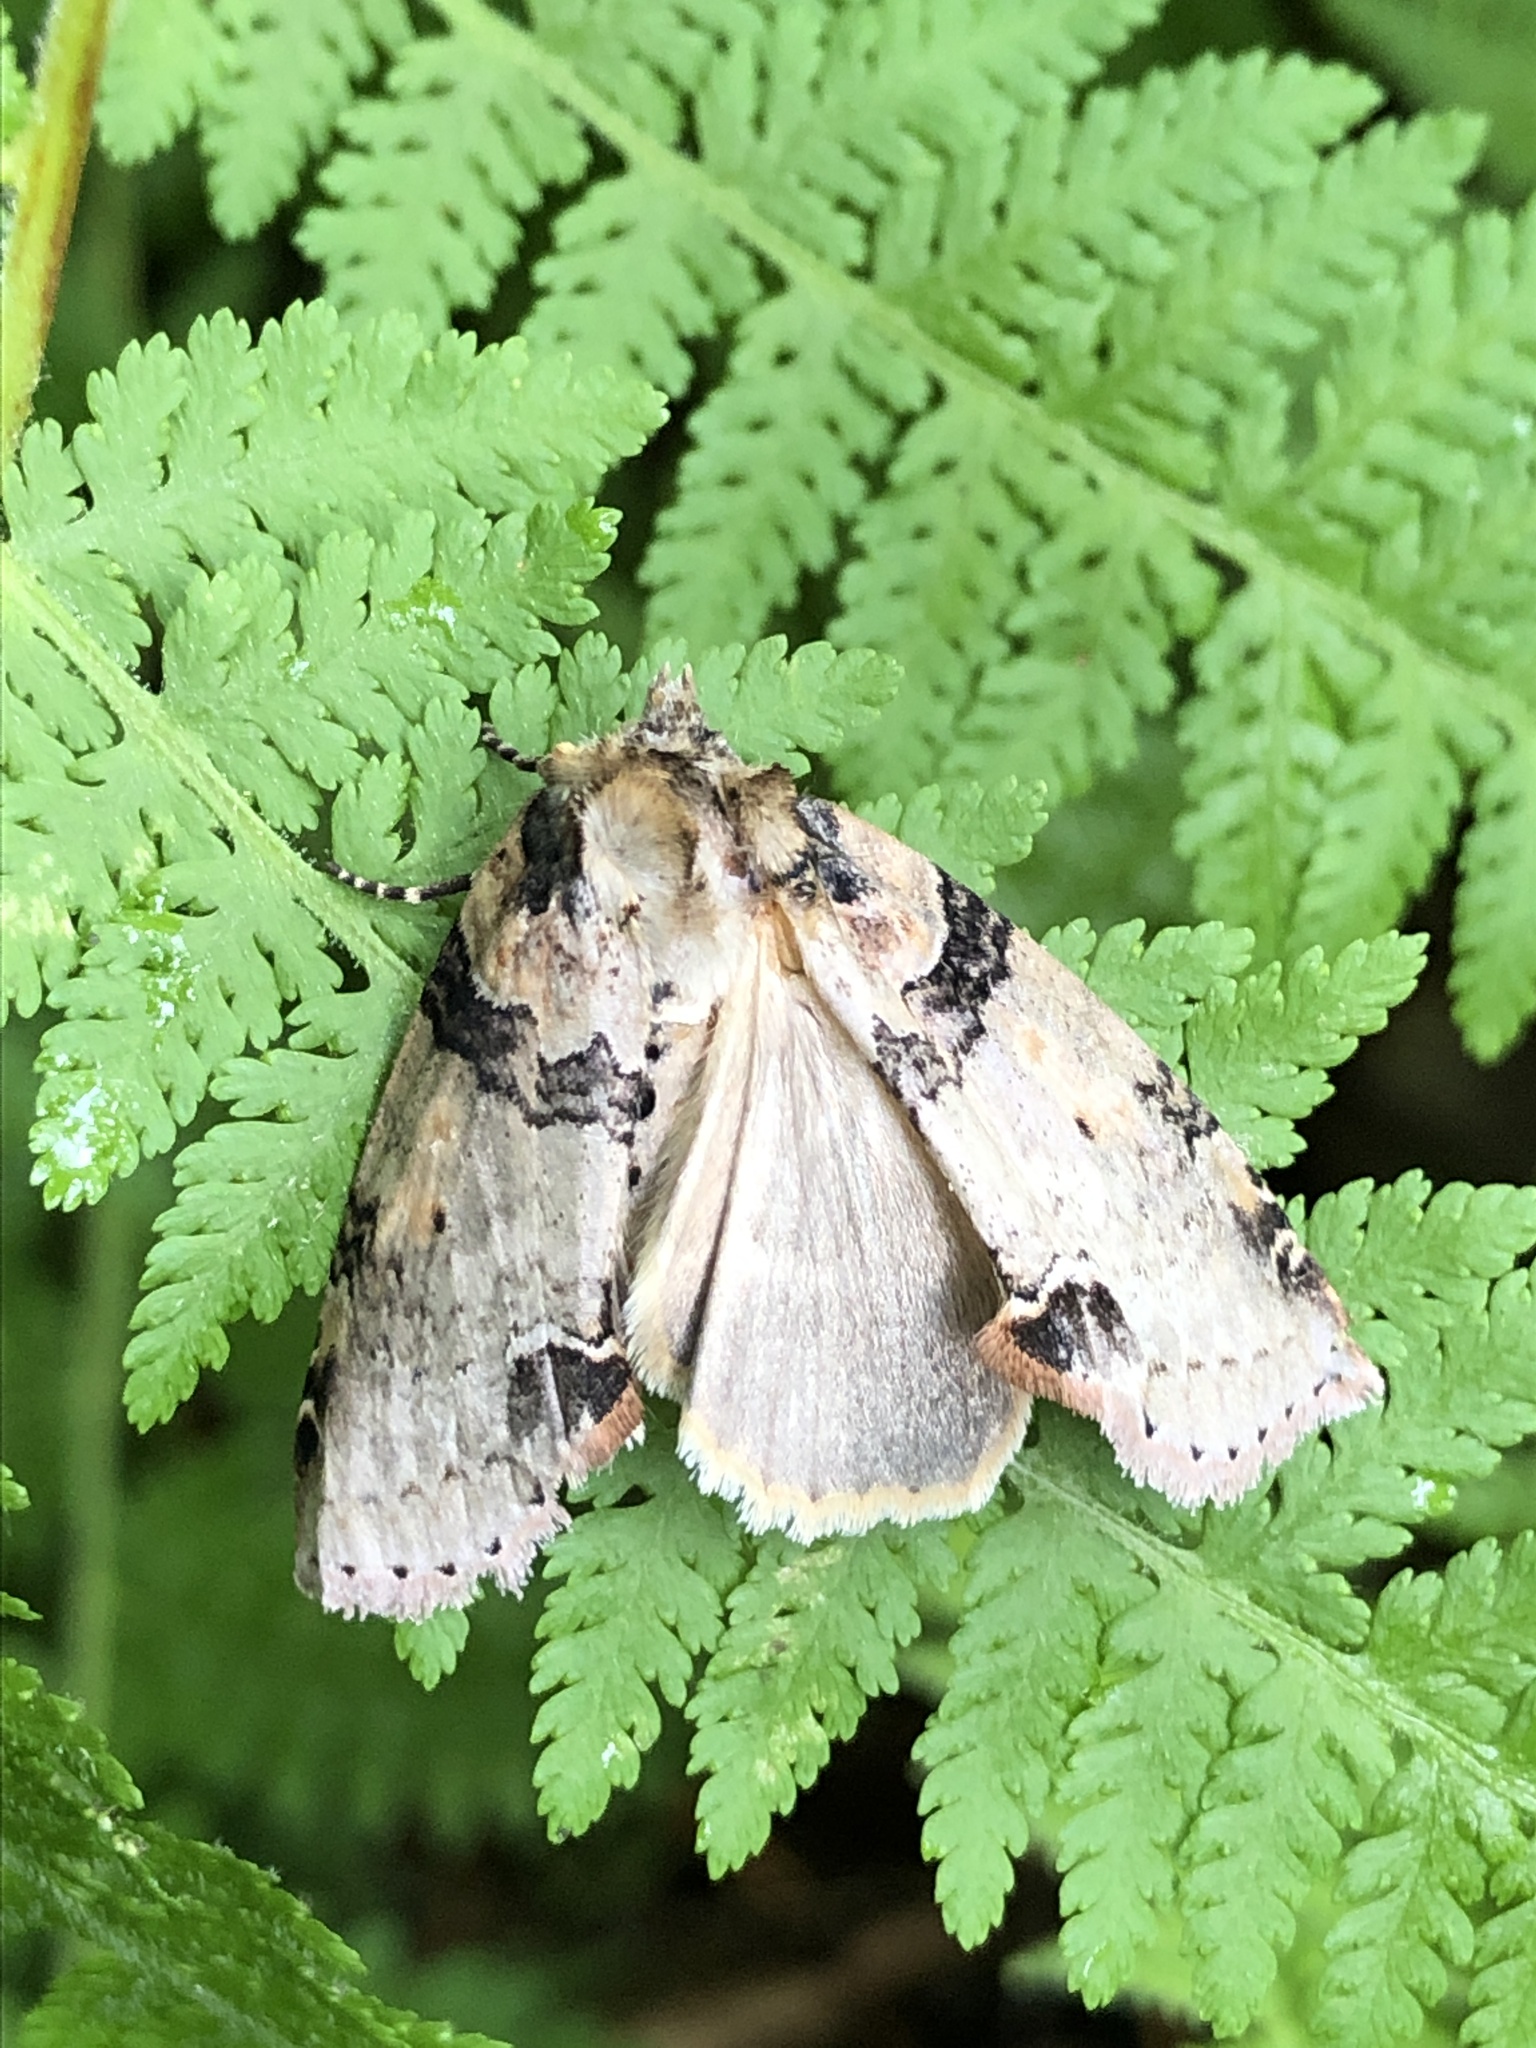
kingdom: Animalia
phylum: Arthropoda
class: Insecta
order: Lepidoptera
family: Drepanidae
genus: Pseudothyatira
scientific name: Pseudothyatira cymatophoroides
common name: Tufted thyatirid moth
